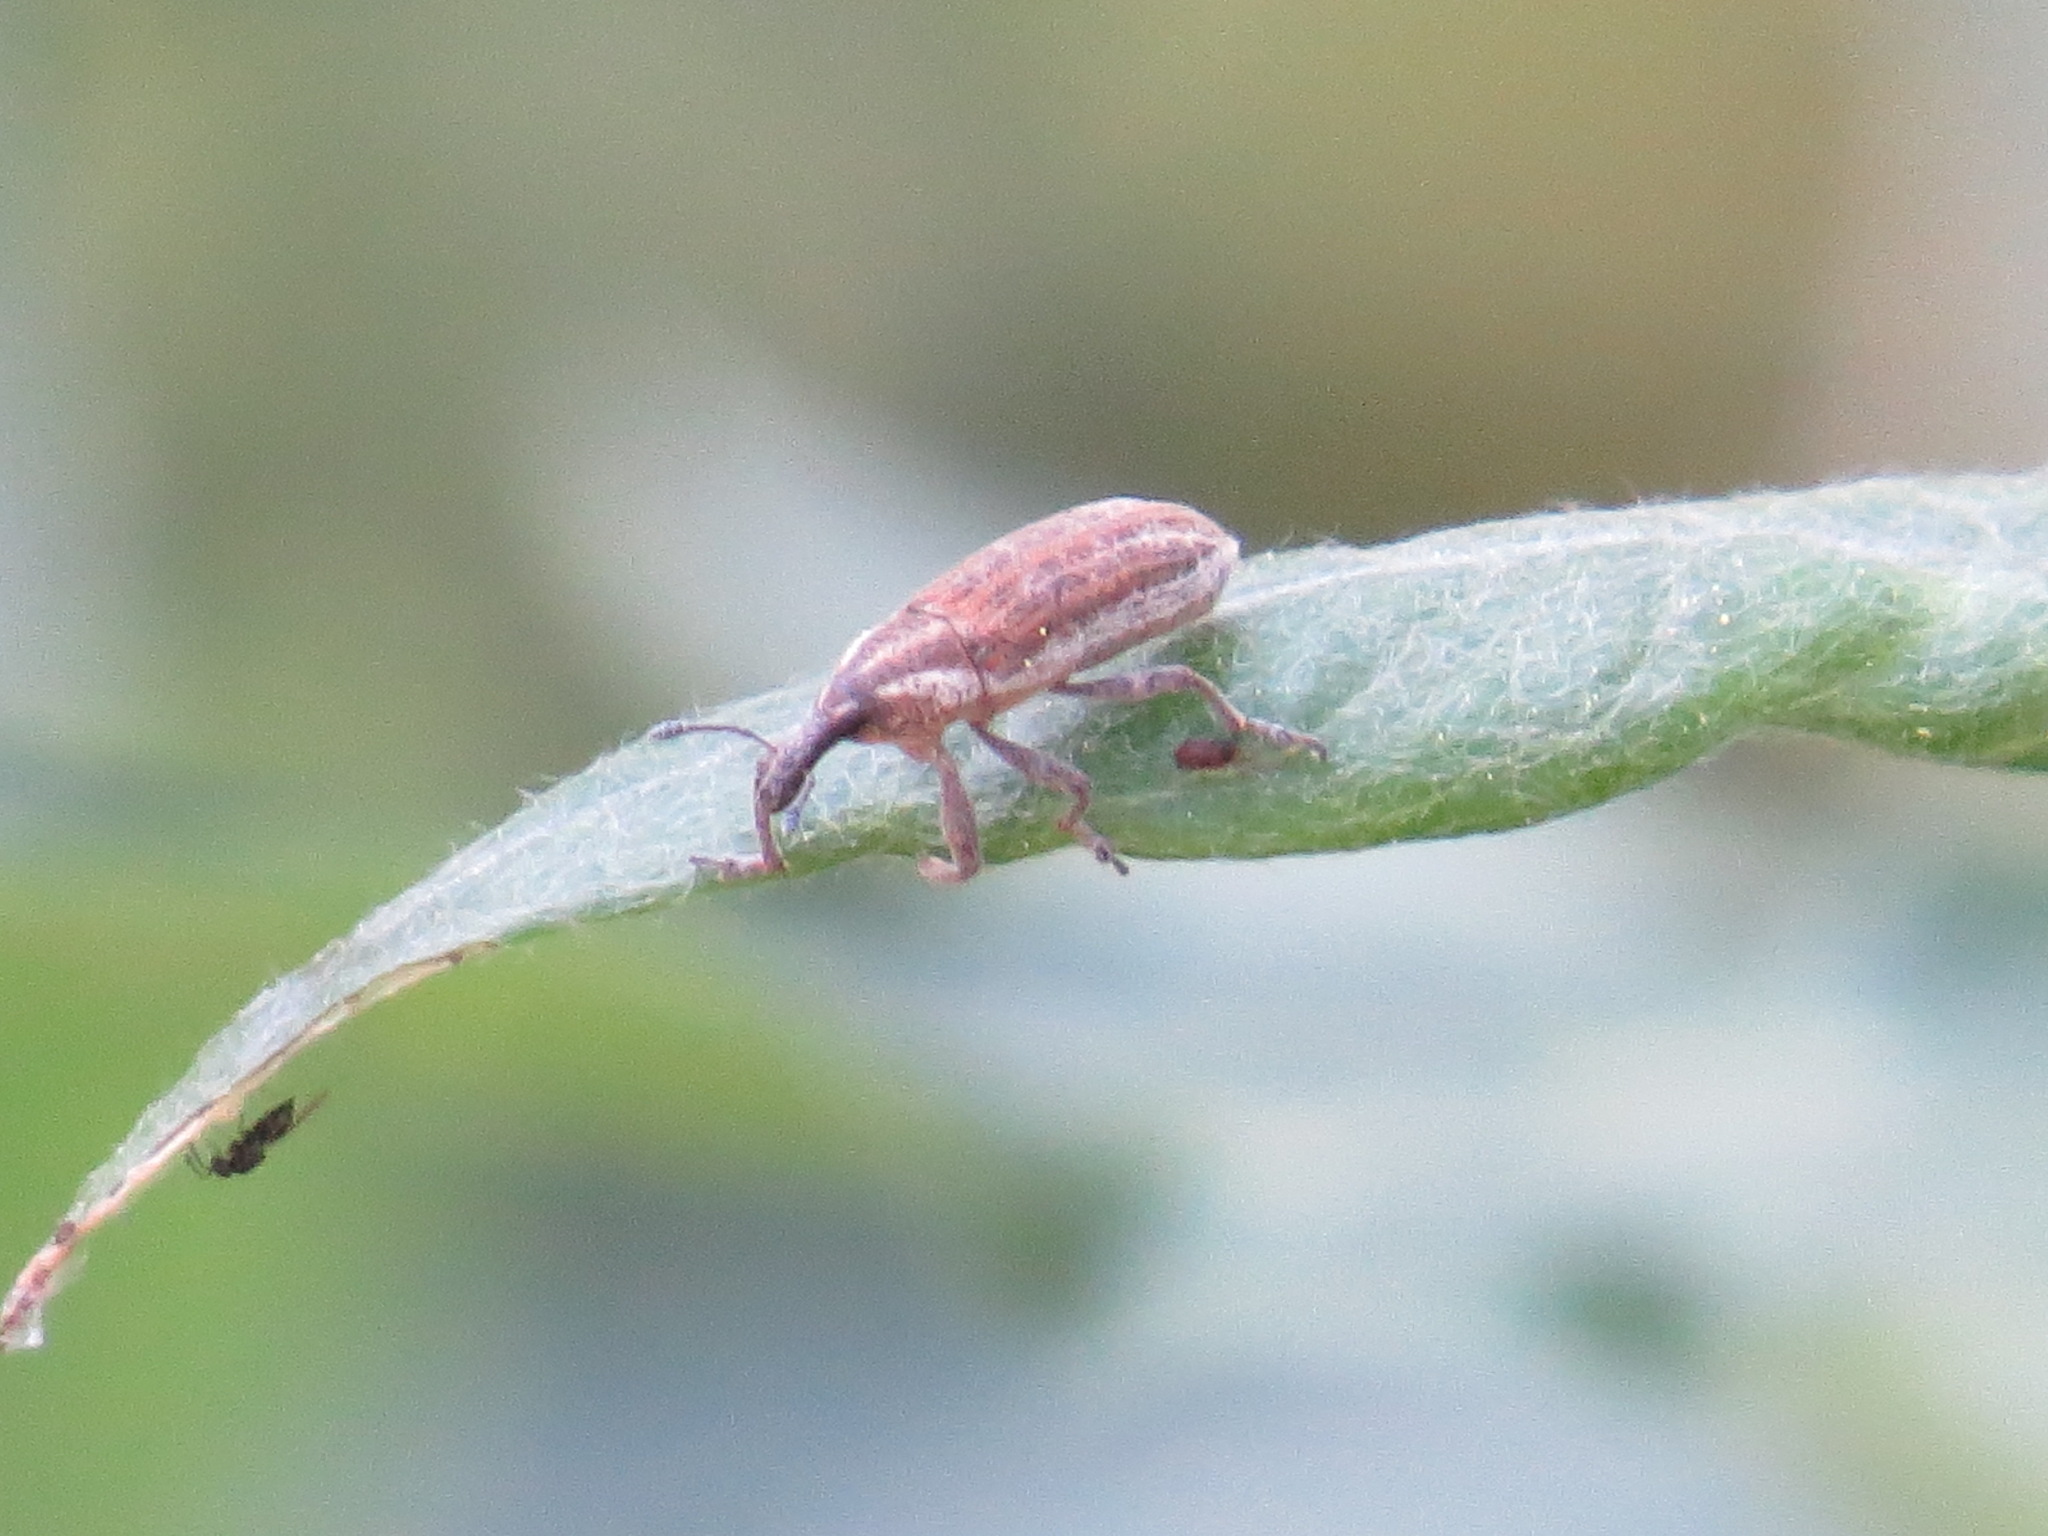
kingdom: Animalia
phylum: Arthropoda
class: Insecta
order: Coleoptera
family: Curculionidae
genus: Lixus
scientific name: Lixus perforatus
